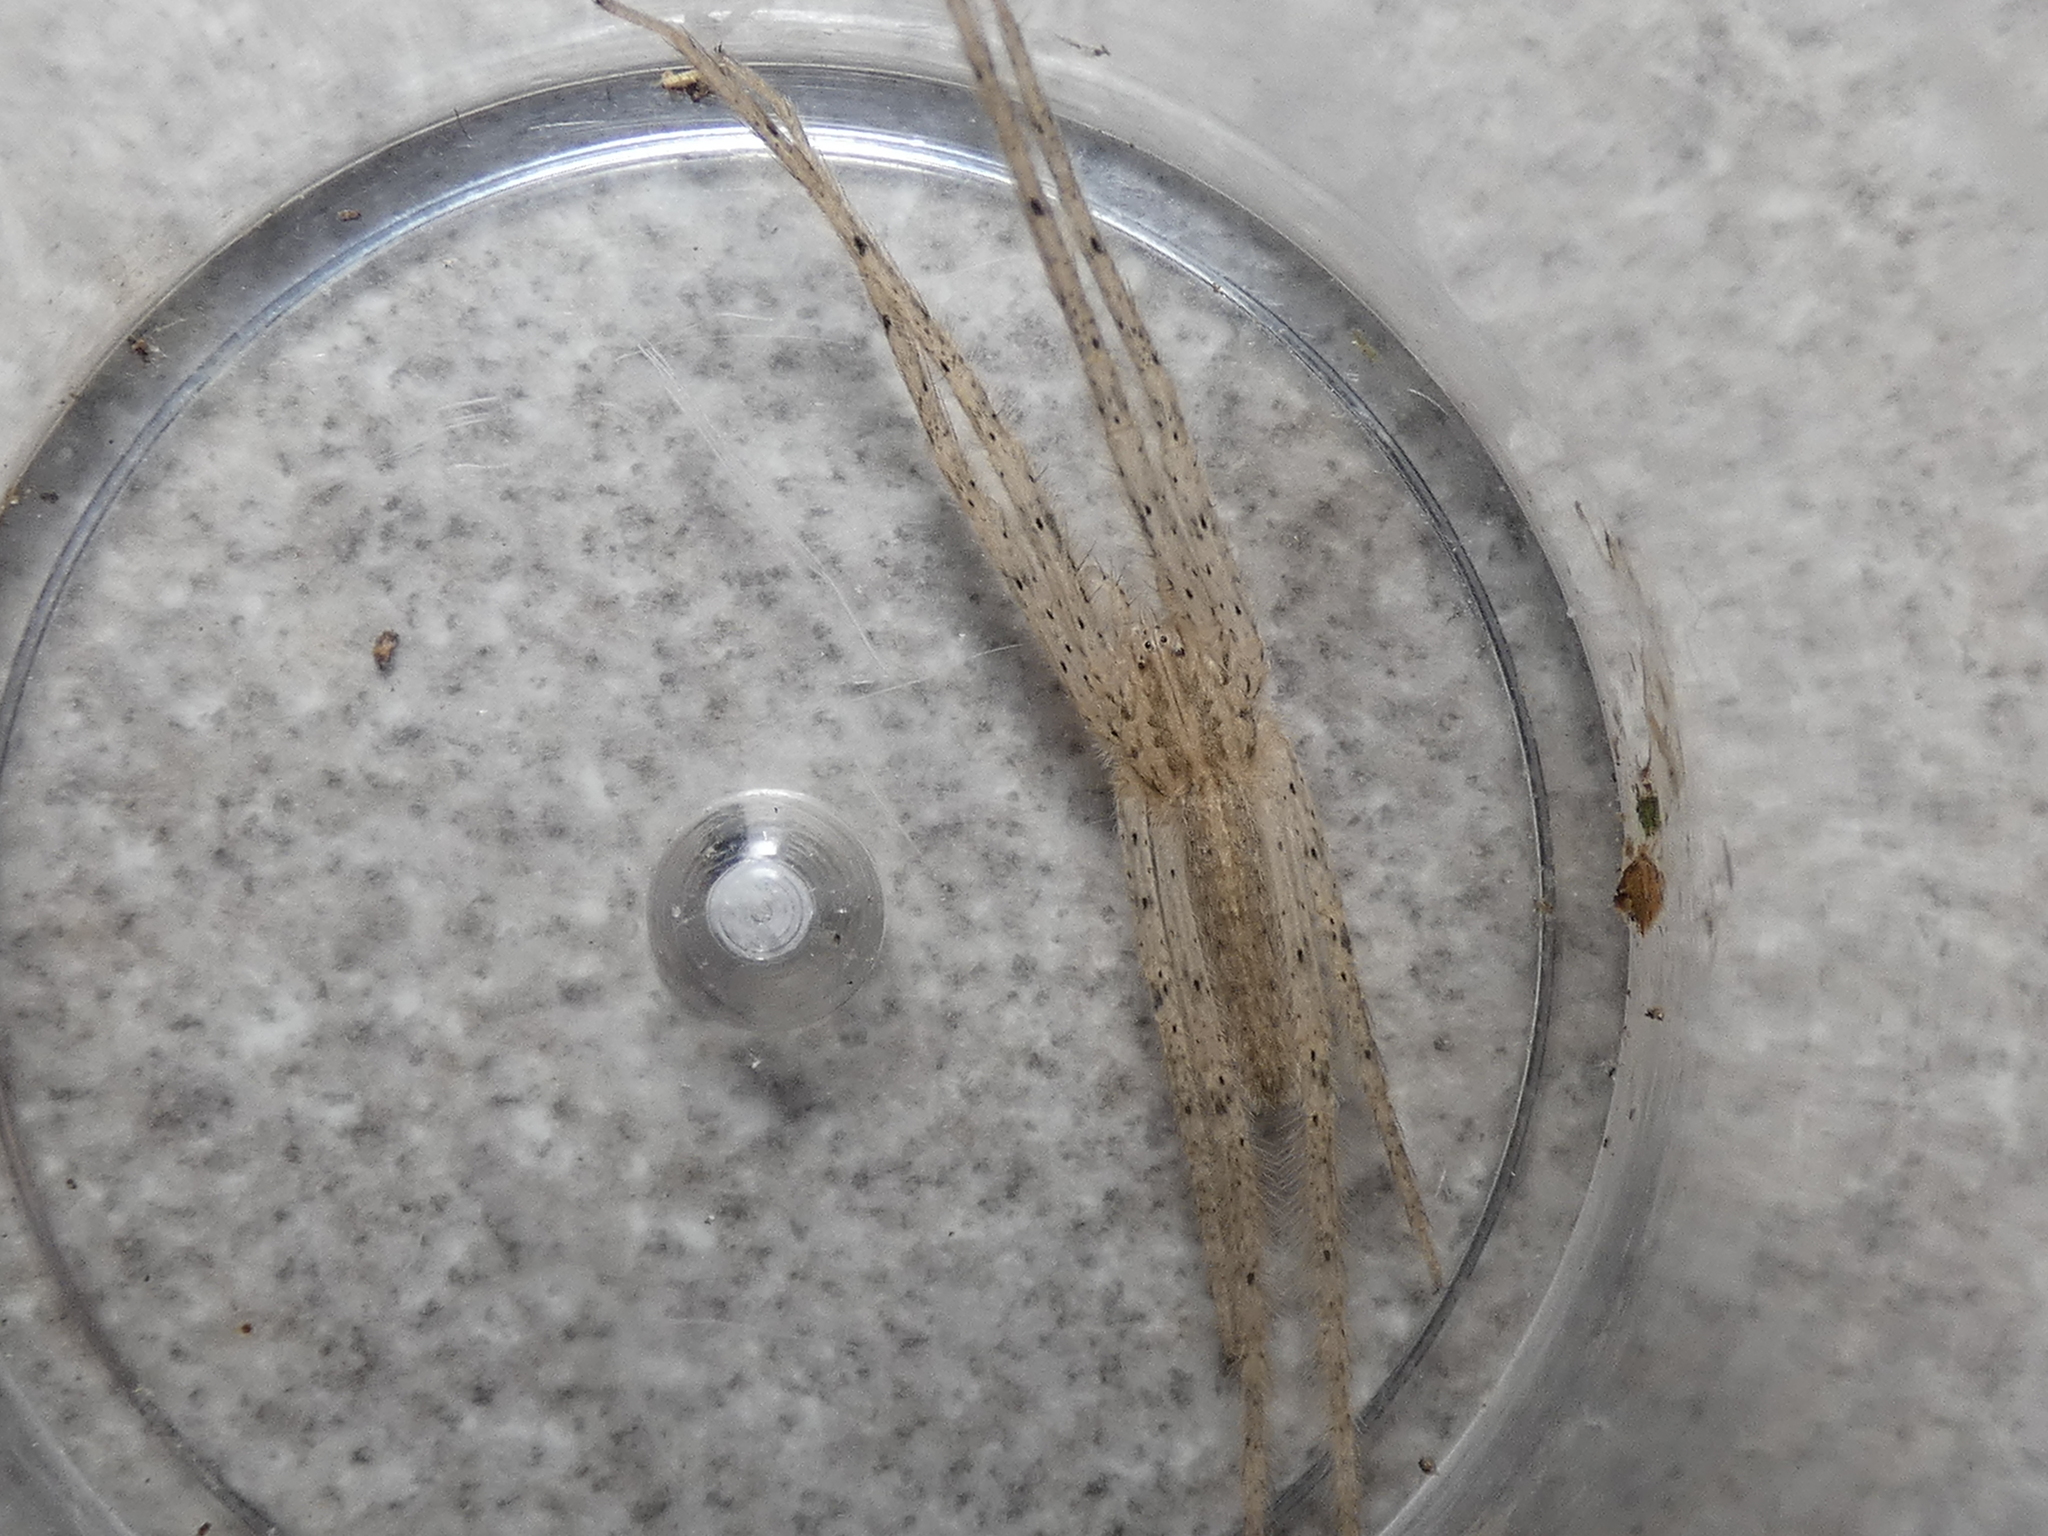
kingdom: Animalia
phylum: Arthropoda
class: Arachnida
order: Araneae
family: Pisauridae
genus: Pisaurina
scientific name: Pisaurina undulata
